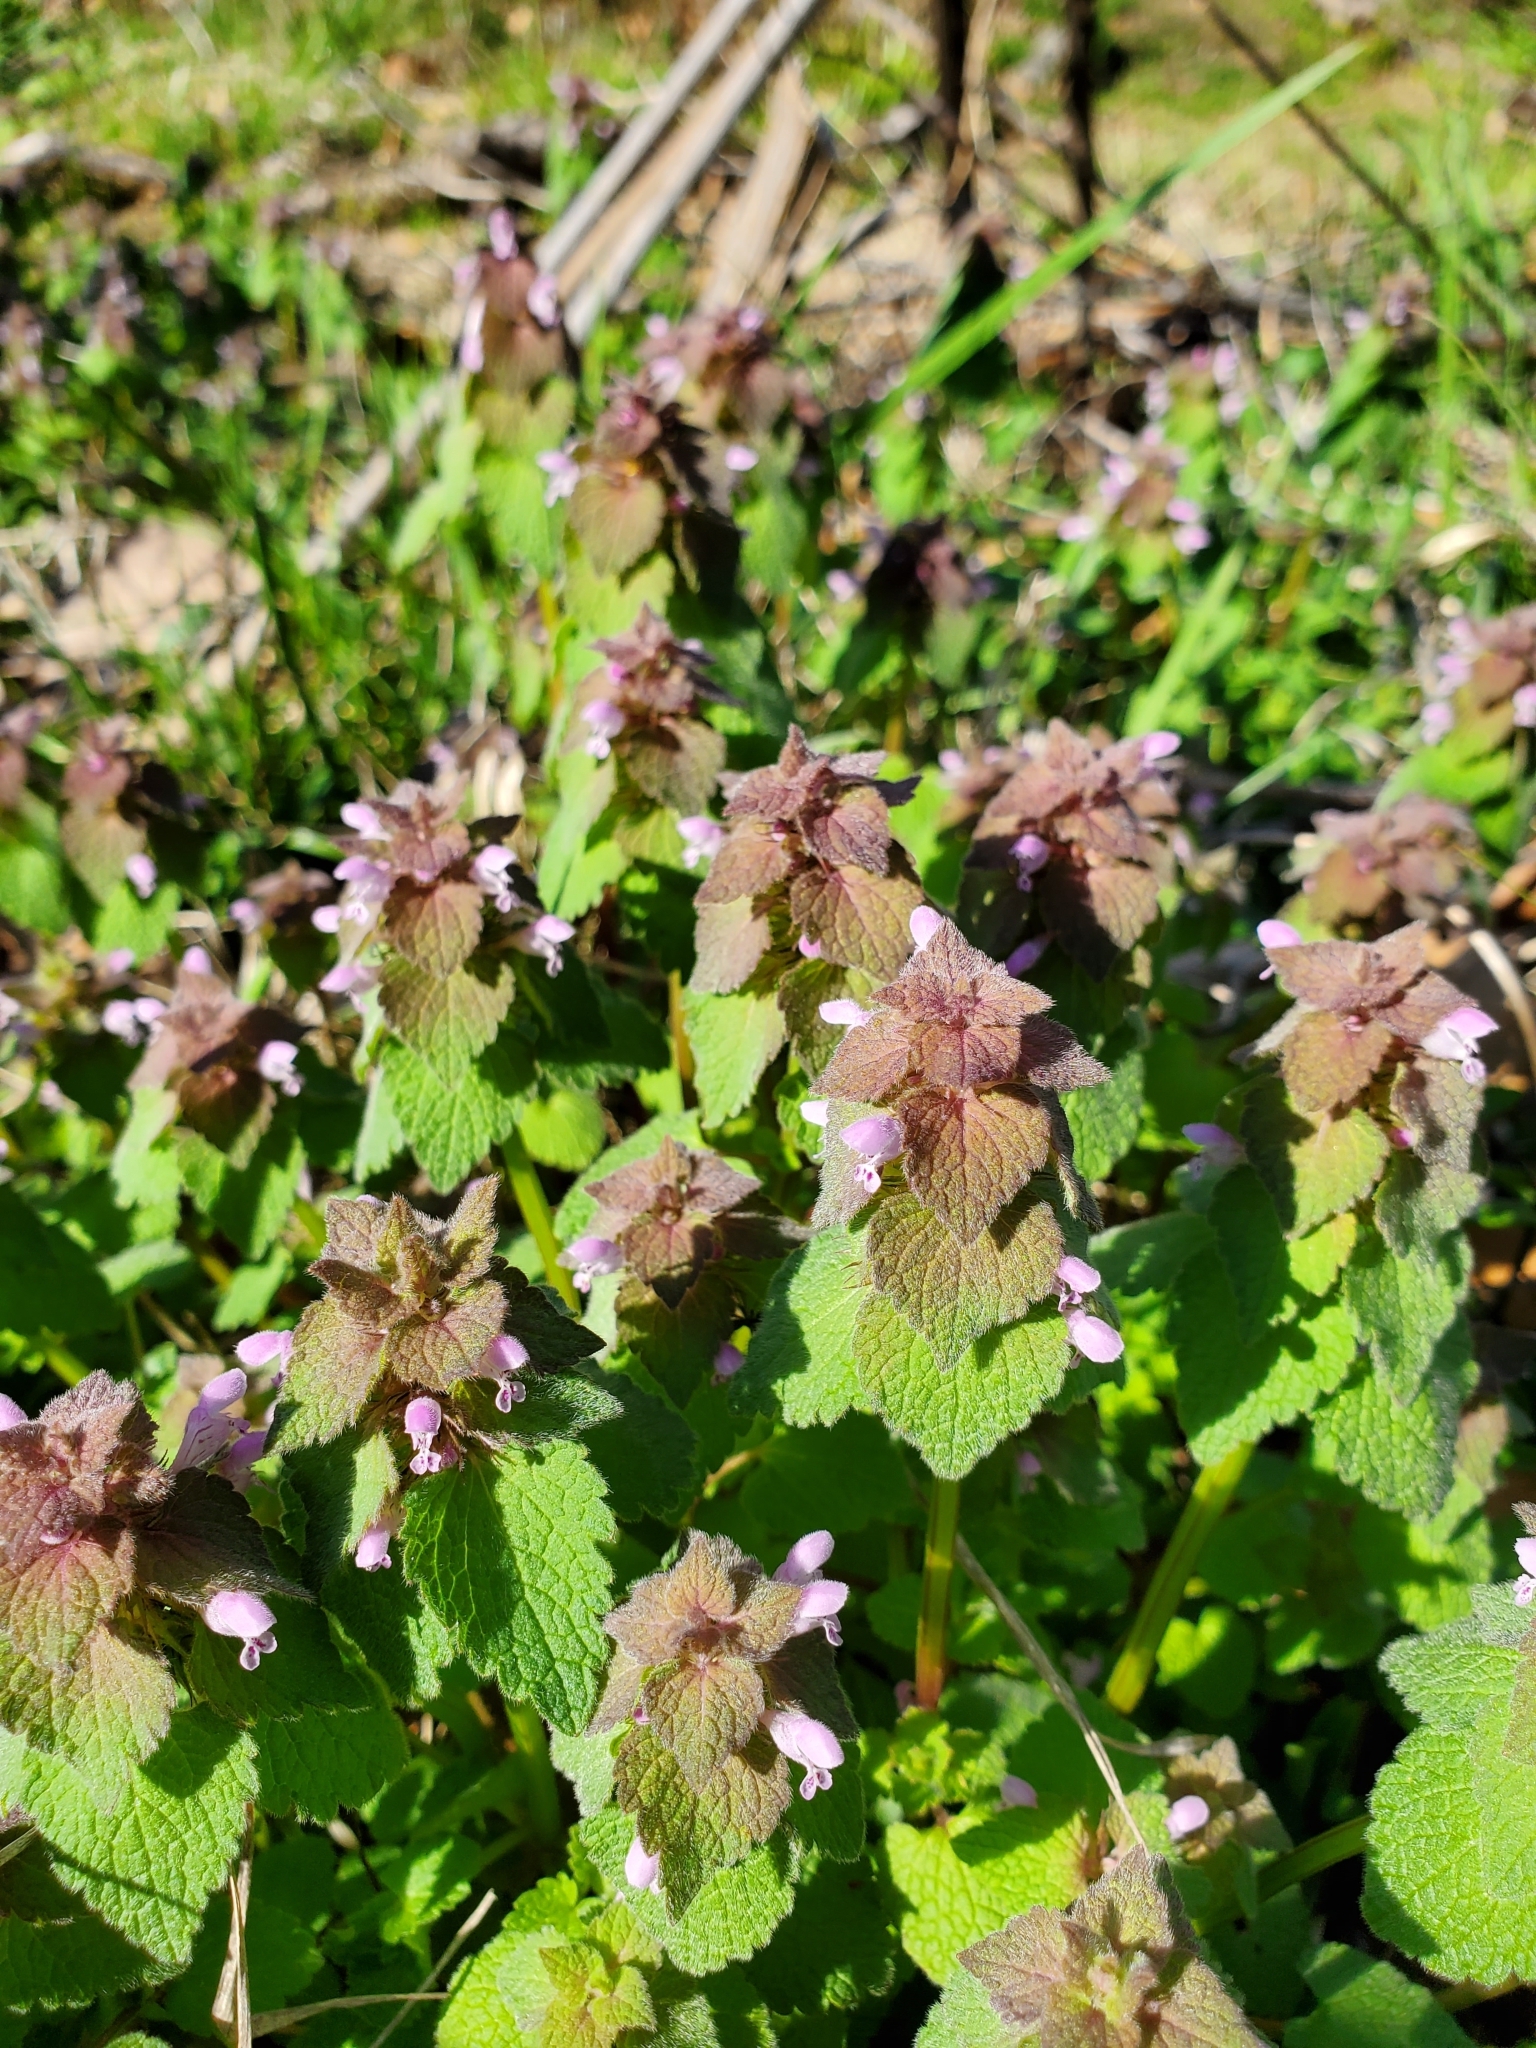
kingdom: Plantae
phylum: Tracheophyta
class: Magnoliopsida
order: Lamiales
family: Lamiaceae
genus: Lamium
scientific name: Lamium purpureum
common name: Red dead-nettle
